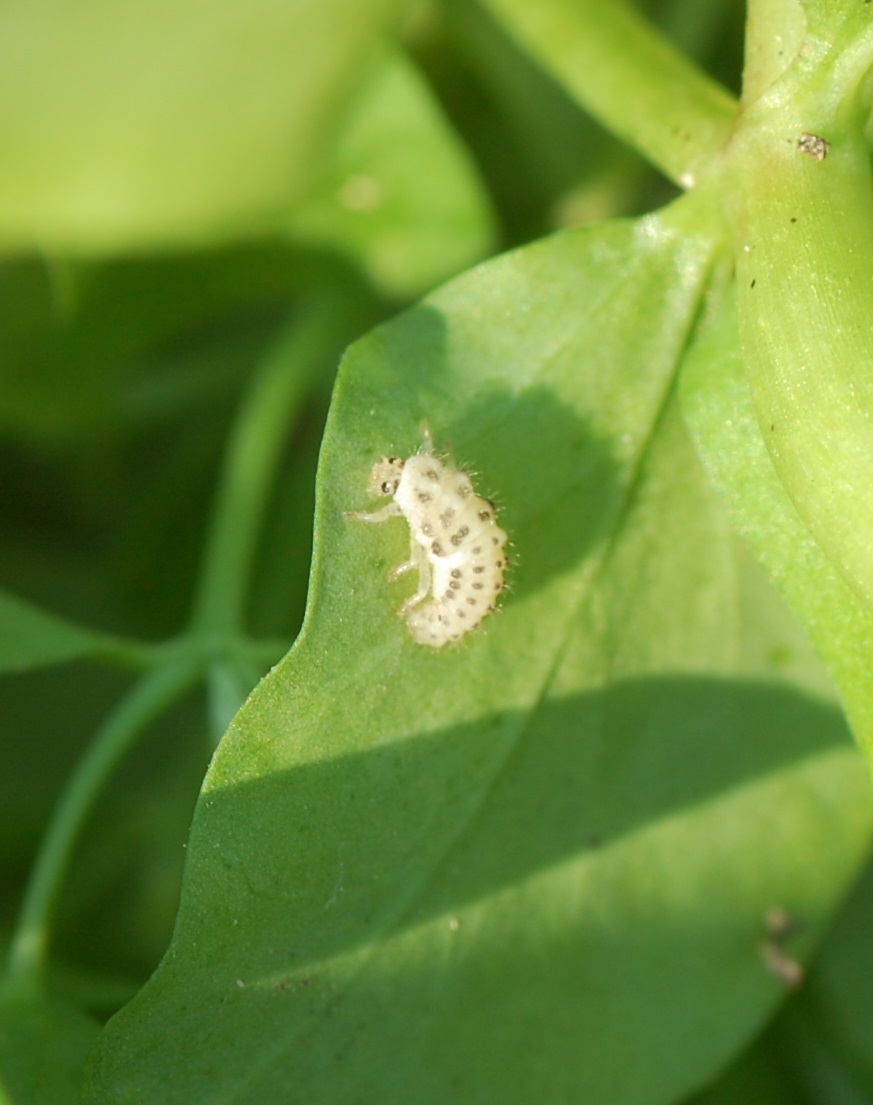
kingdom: Animalia
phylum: Arthropoda
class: Insecta
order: Coleoptera
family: Coccinellidae
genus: Psyllobora
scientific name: Psyllobora vigintimaculata
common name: Ladybird beetle
